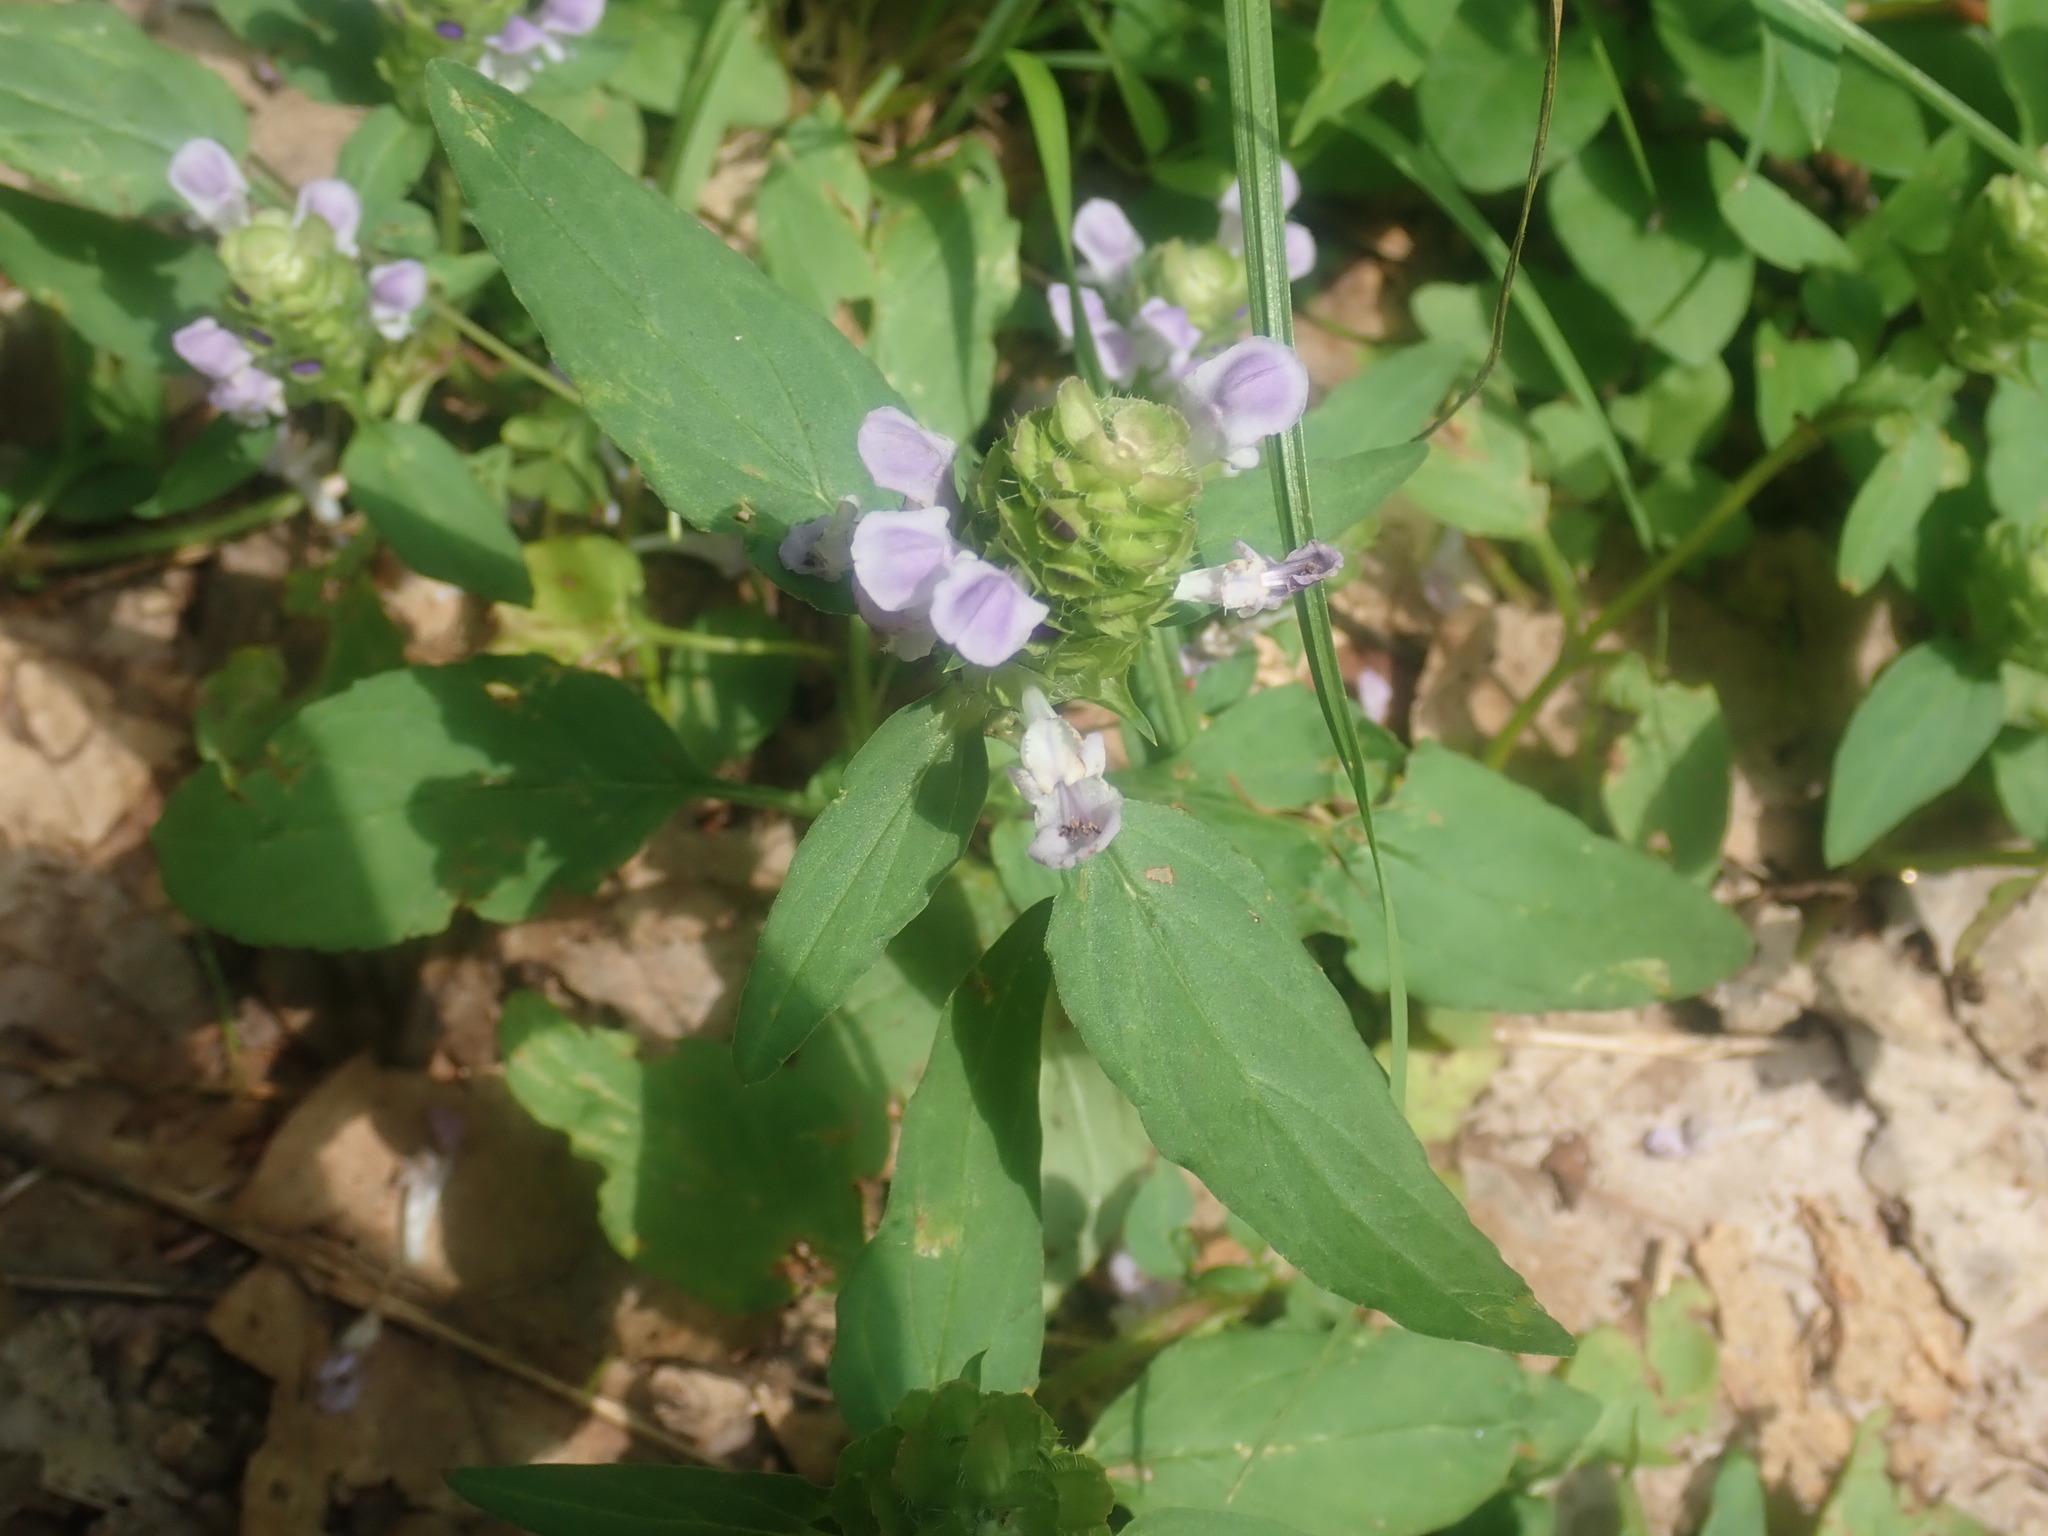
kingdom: Plantae
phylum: Tracheophyta
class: Magnoliopsida
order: Lamiales
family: Lamiaceae
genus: Prunella
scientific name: Prunella vulgaris
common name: Heal-all
